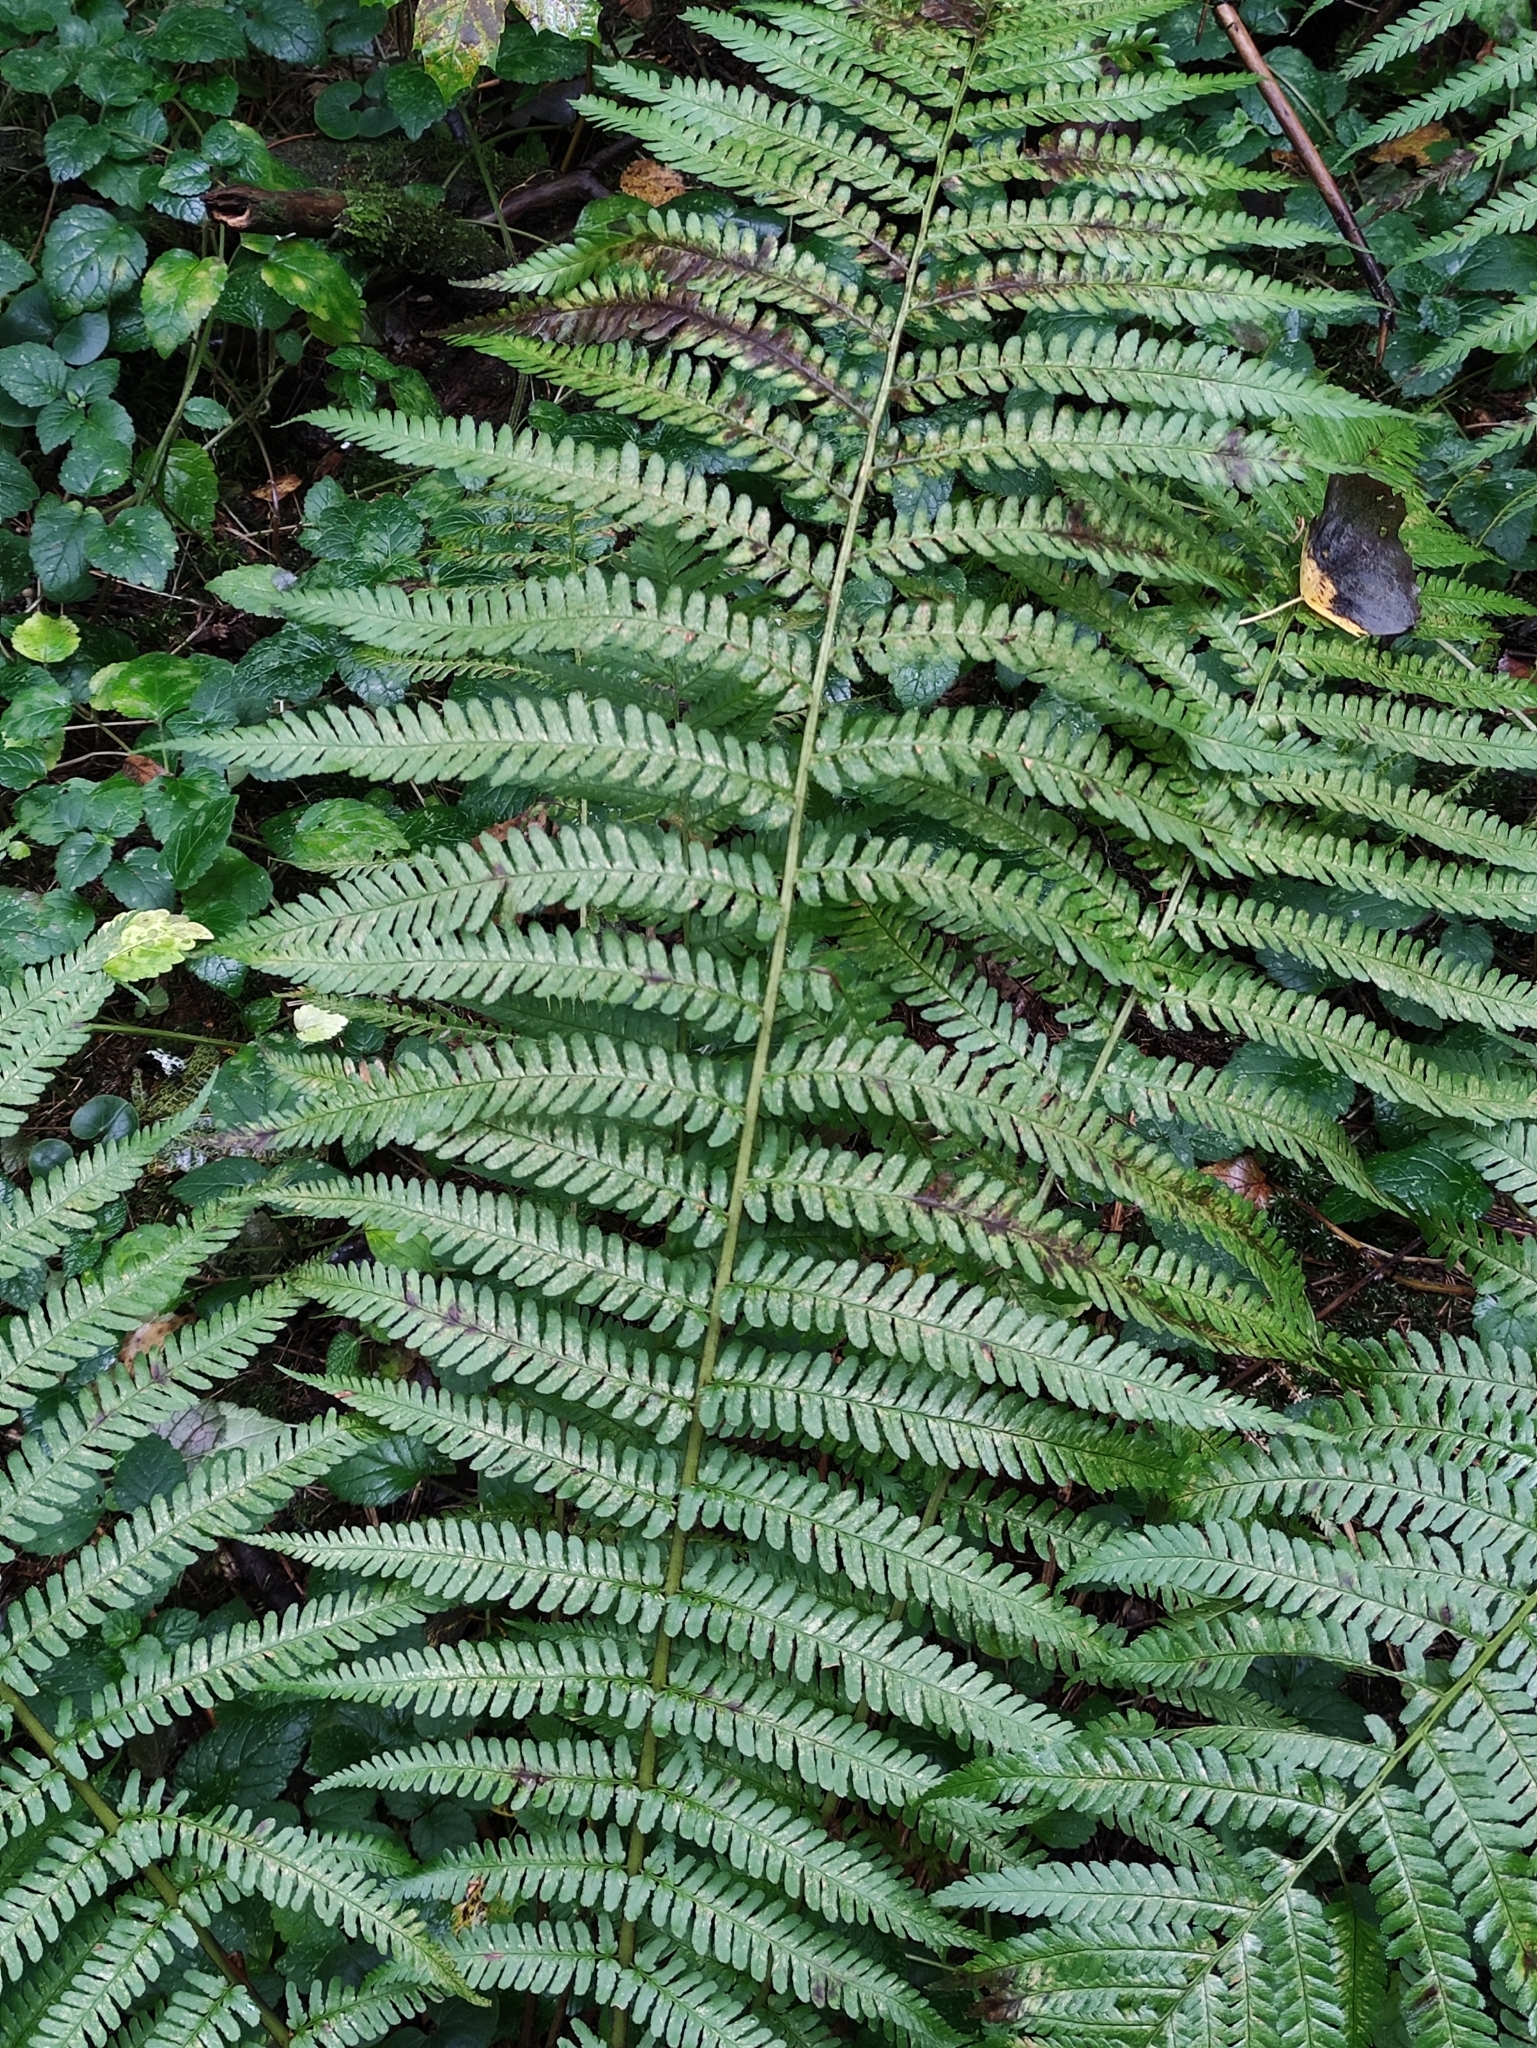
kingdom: Plantae
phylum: Tracheophyta
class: Polypodiopsida
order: Polypodiales
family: Dryopteridaceae
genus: Dryopteris
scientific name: Dryopteris filix-mas
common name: Male fern
